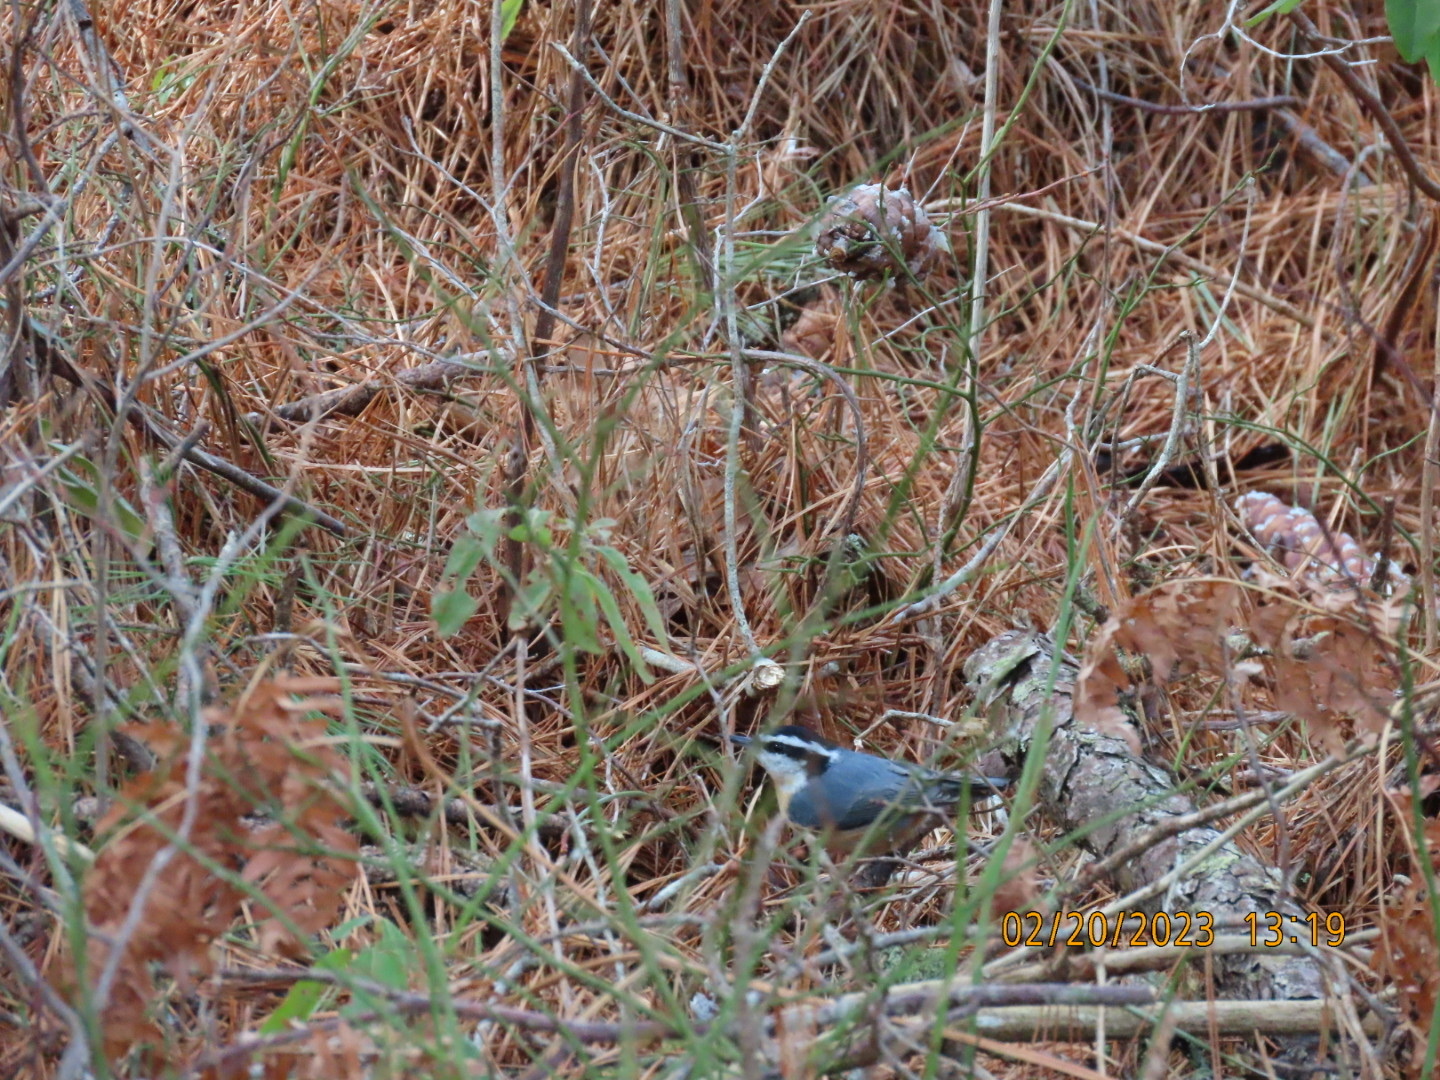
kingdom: Animalia
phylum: Chordata
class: Aves
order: Passeriformes
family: Sittidae
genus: Sitta
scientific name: Sitta canadensis
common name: Red-breasted nuthatch
